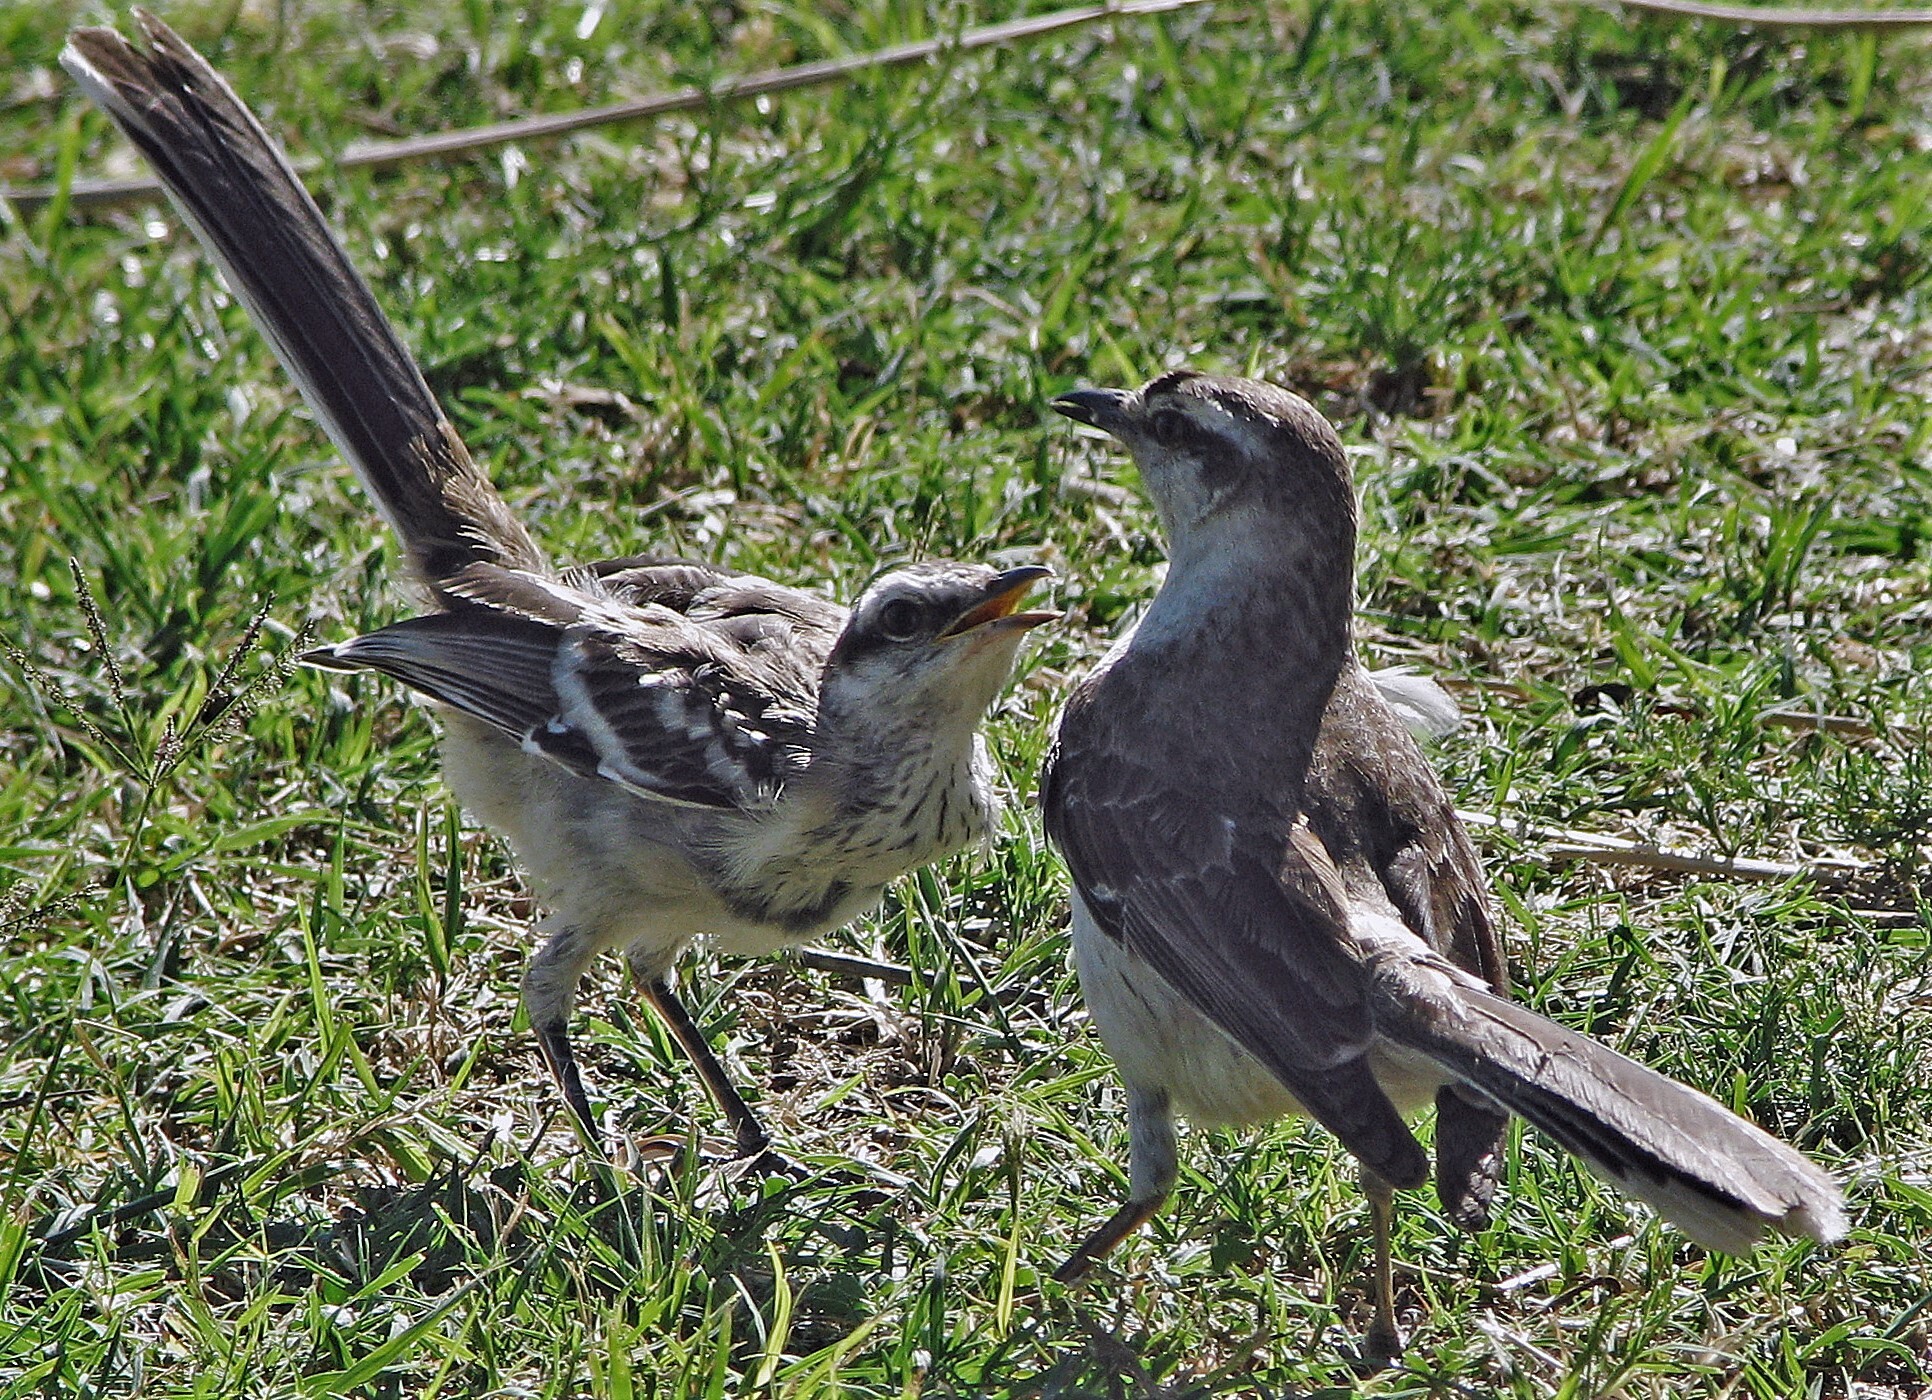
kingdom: Animalia
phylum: Chordata
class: Aves
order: Passeriformes
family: Mimidae
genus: Mimus
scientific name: Mimus saturninus
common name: Chalk-browed mockingbird
